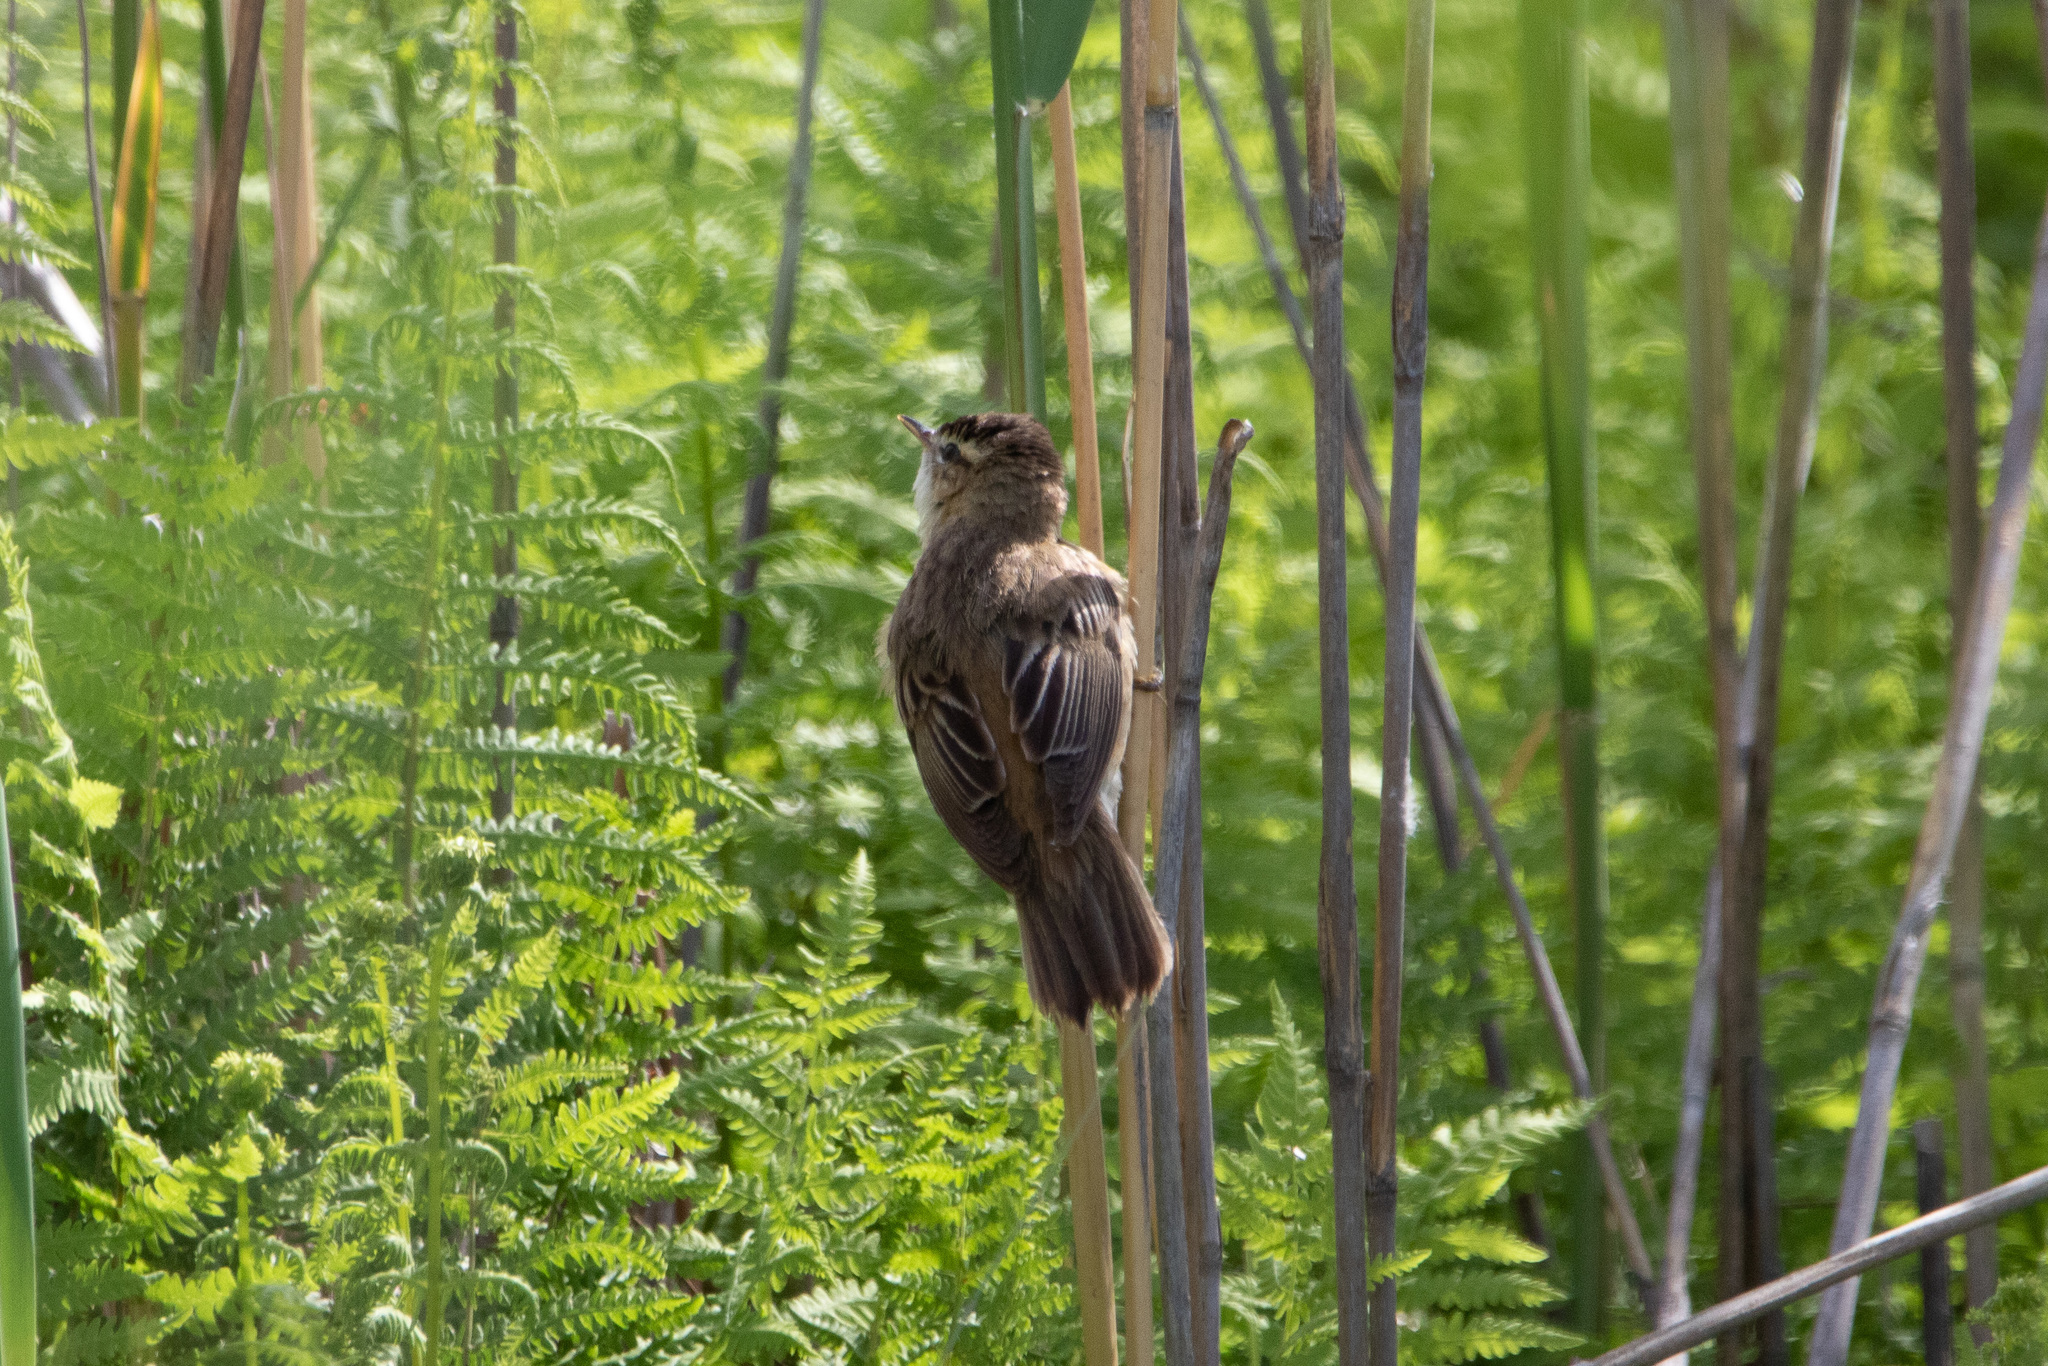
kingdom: Animalia
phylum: Chordata
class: Aves
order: Passeriformes
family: Acrocephalidae
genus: Acrocephalus
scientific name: Acrocephalus schoenobaenus
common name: Sedge warbler
